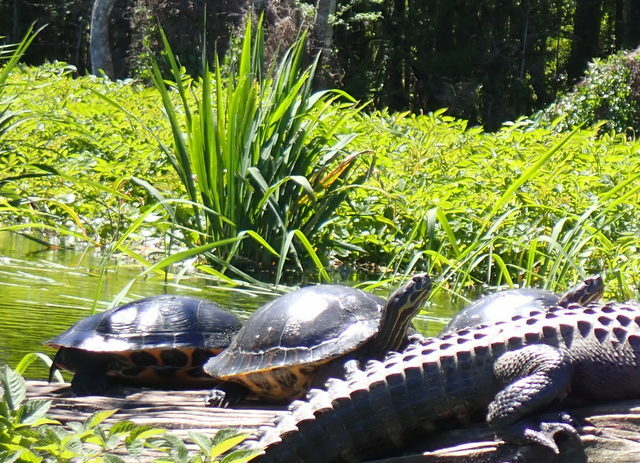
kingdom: Animalia
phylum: Chordata
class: Testudines
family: Emydidae
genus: Pseudemys
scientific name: Pseudemys concinna
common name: Eastern river cooter
